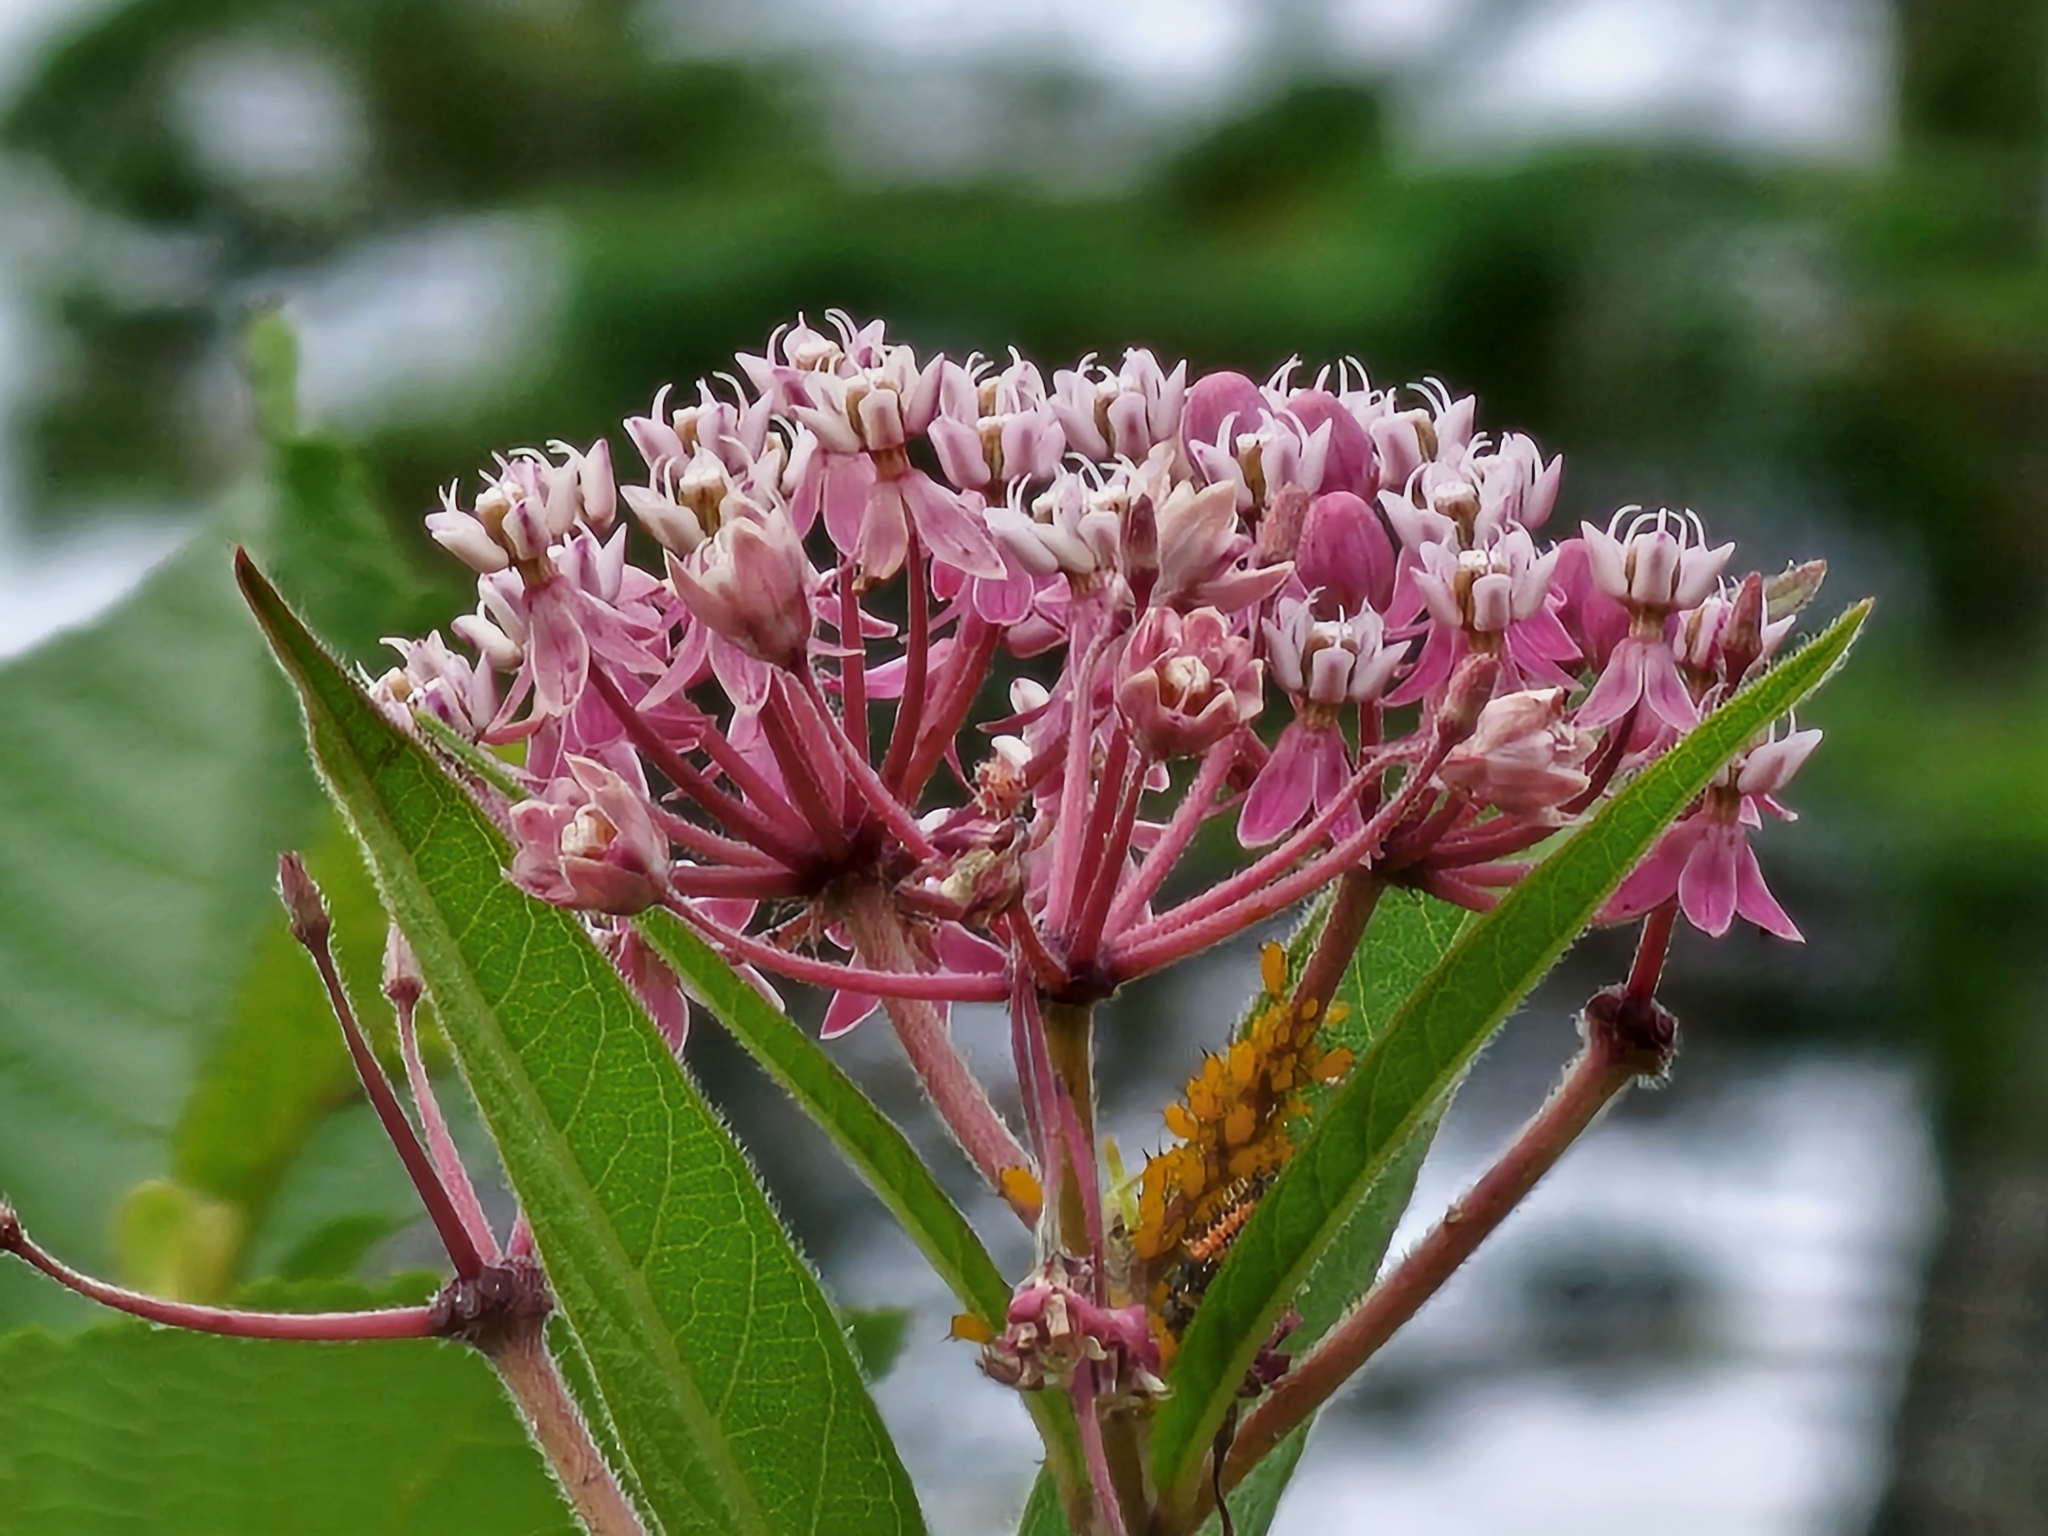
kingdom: Animalia
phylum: Arthropoda
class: Insecta
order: Hemiptera
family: Aphididae
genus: Aphis
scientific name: Aphis nerii
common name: Oleander aphid
